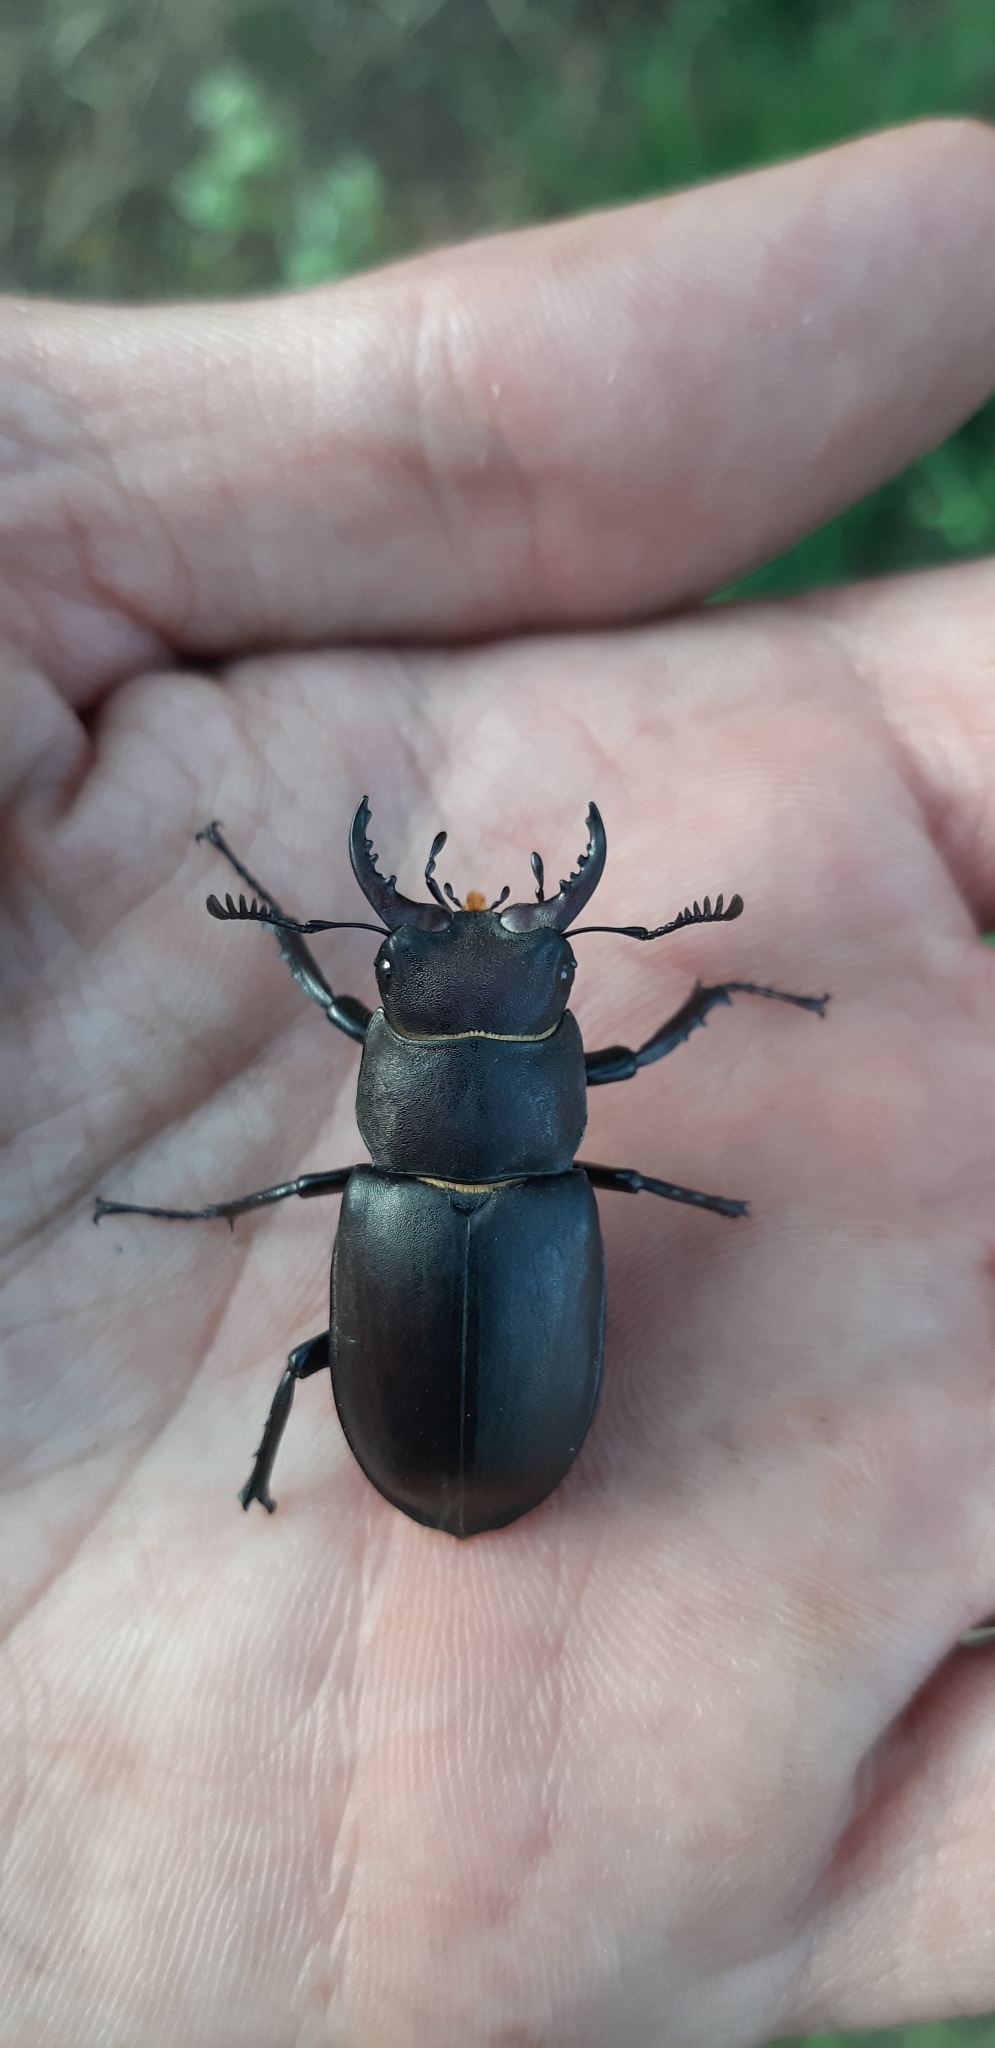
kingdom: Animalia
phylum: Arthropoda
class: Insecta
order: Coleoptera
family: Lucanidae
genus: Lucanus
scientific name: Lucanus tetraodon
